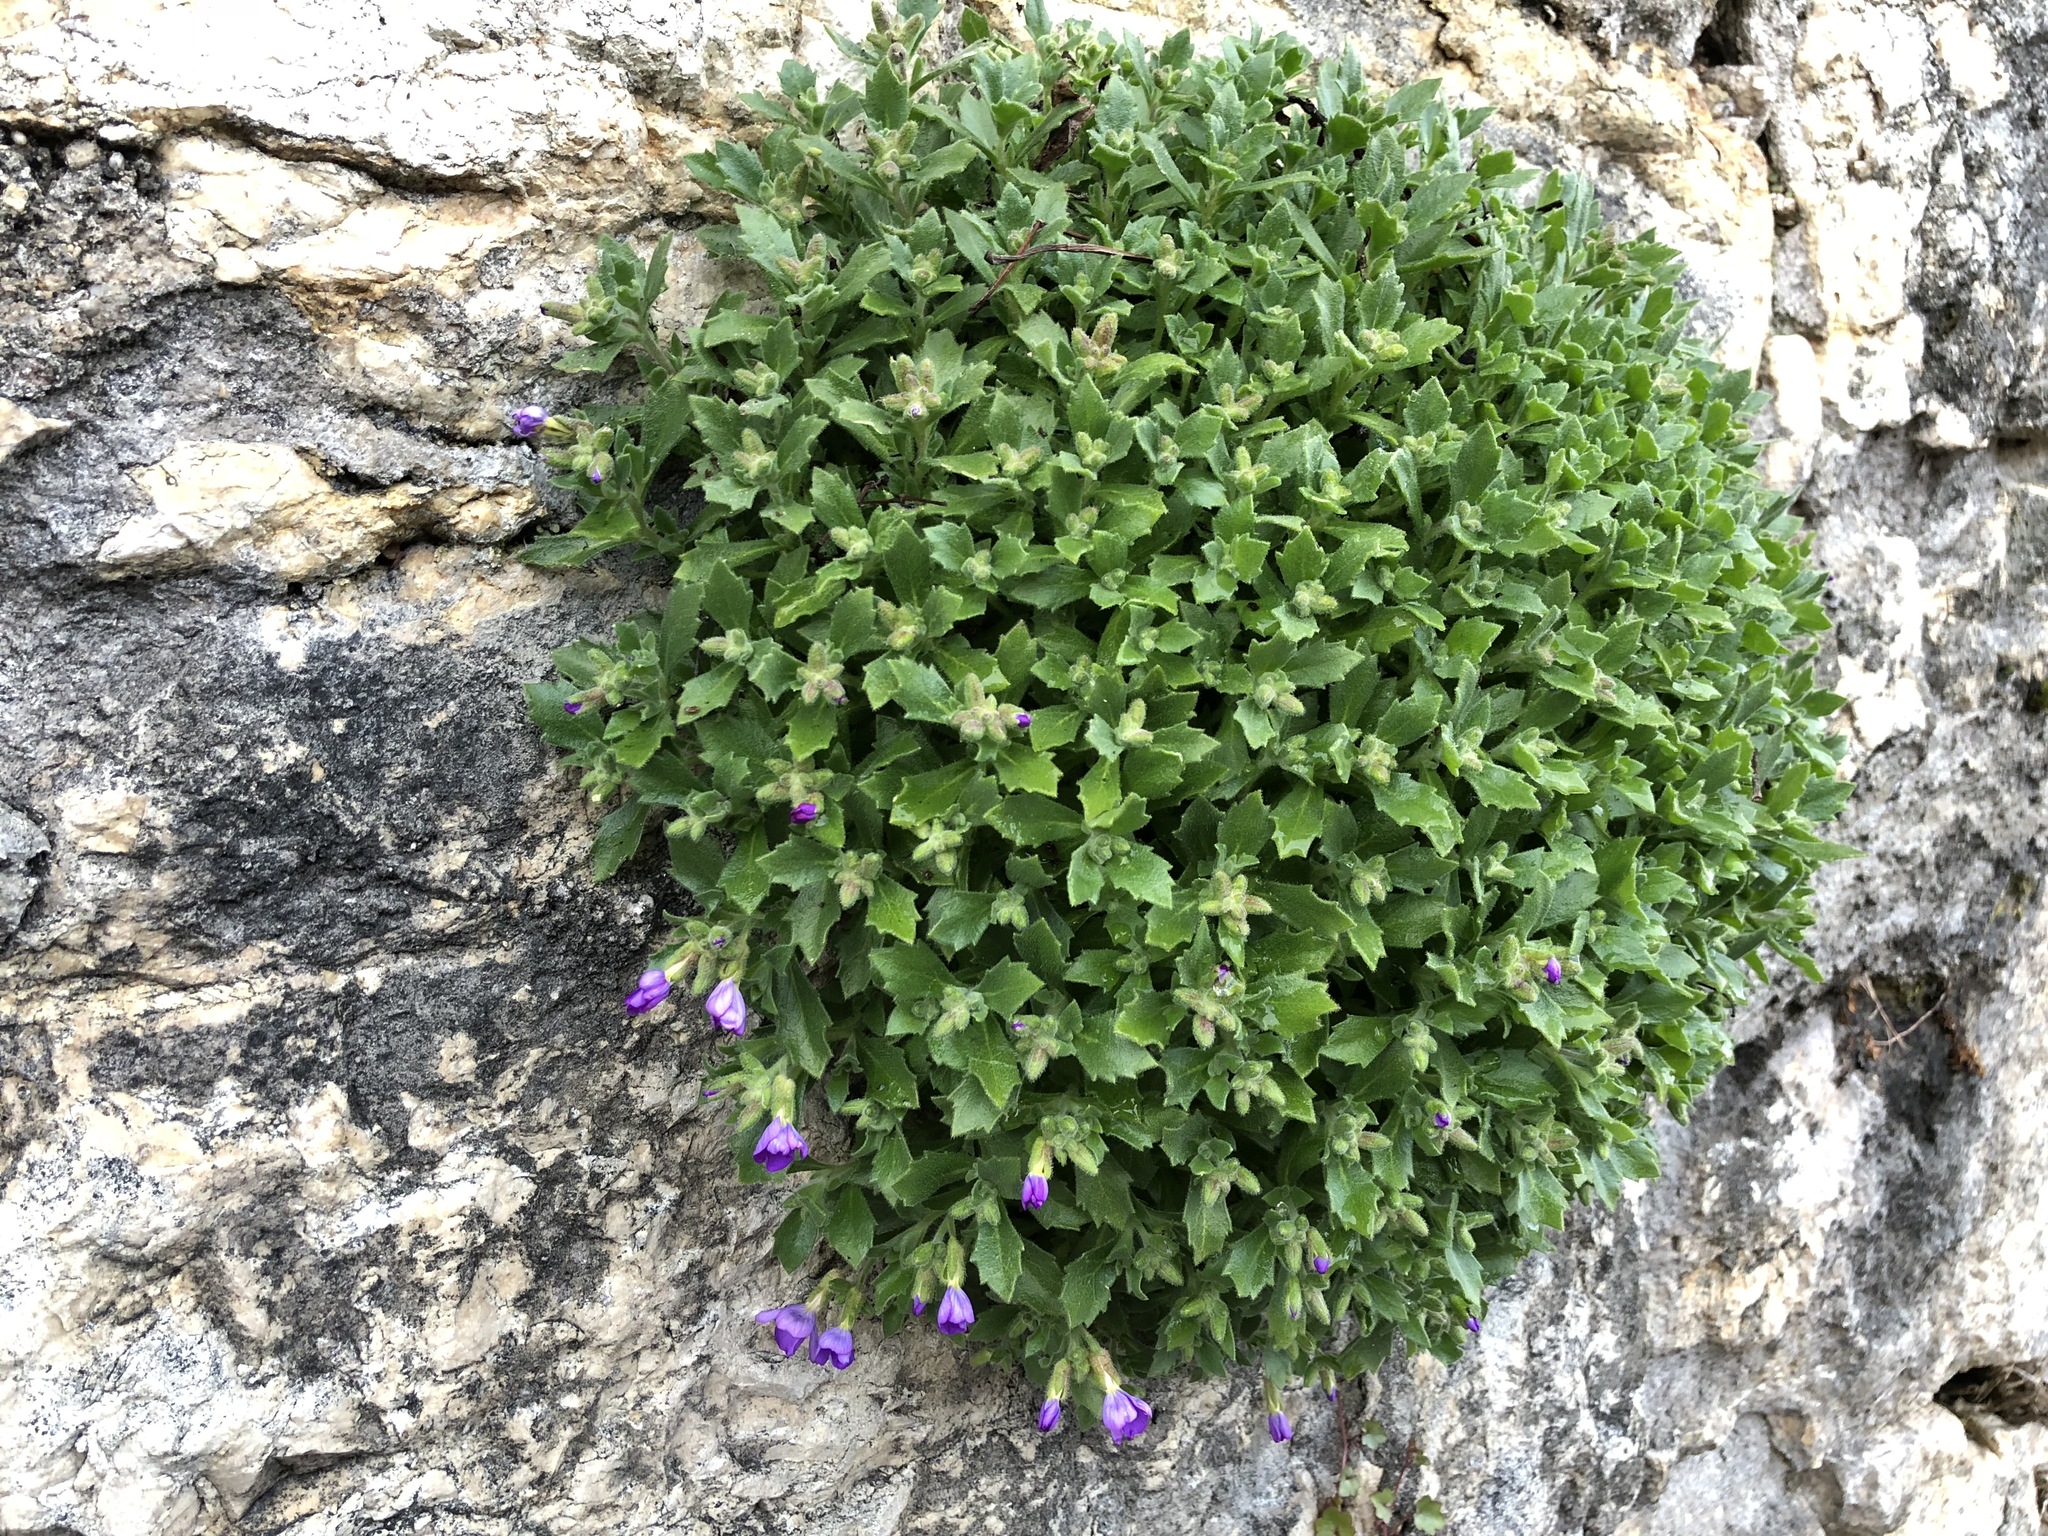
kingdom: Plantae
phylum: Tracheophyta
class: Magnoliopsida
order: Brassicales
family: Brassicaceae
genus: Aubrieta
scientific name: Aubrieta deltoidea
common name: Aubretia
